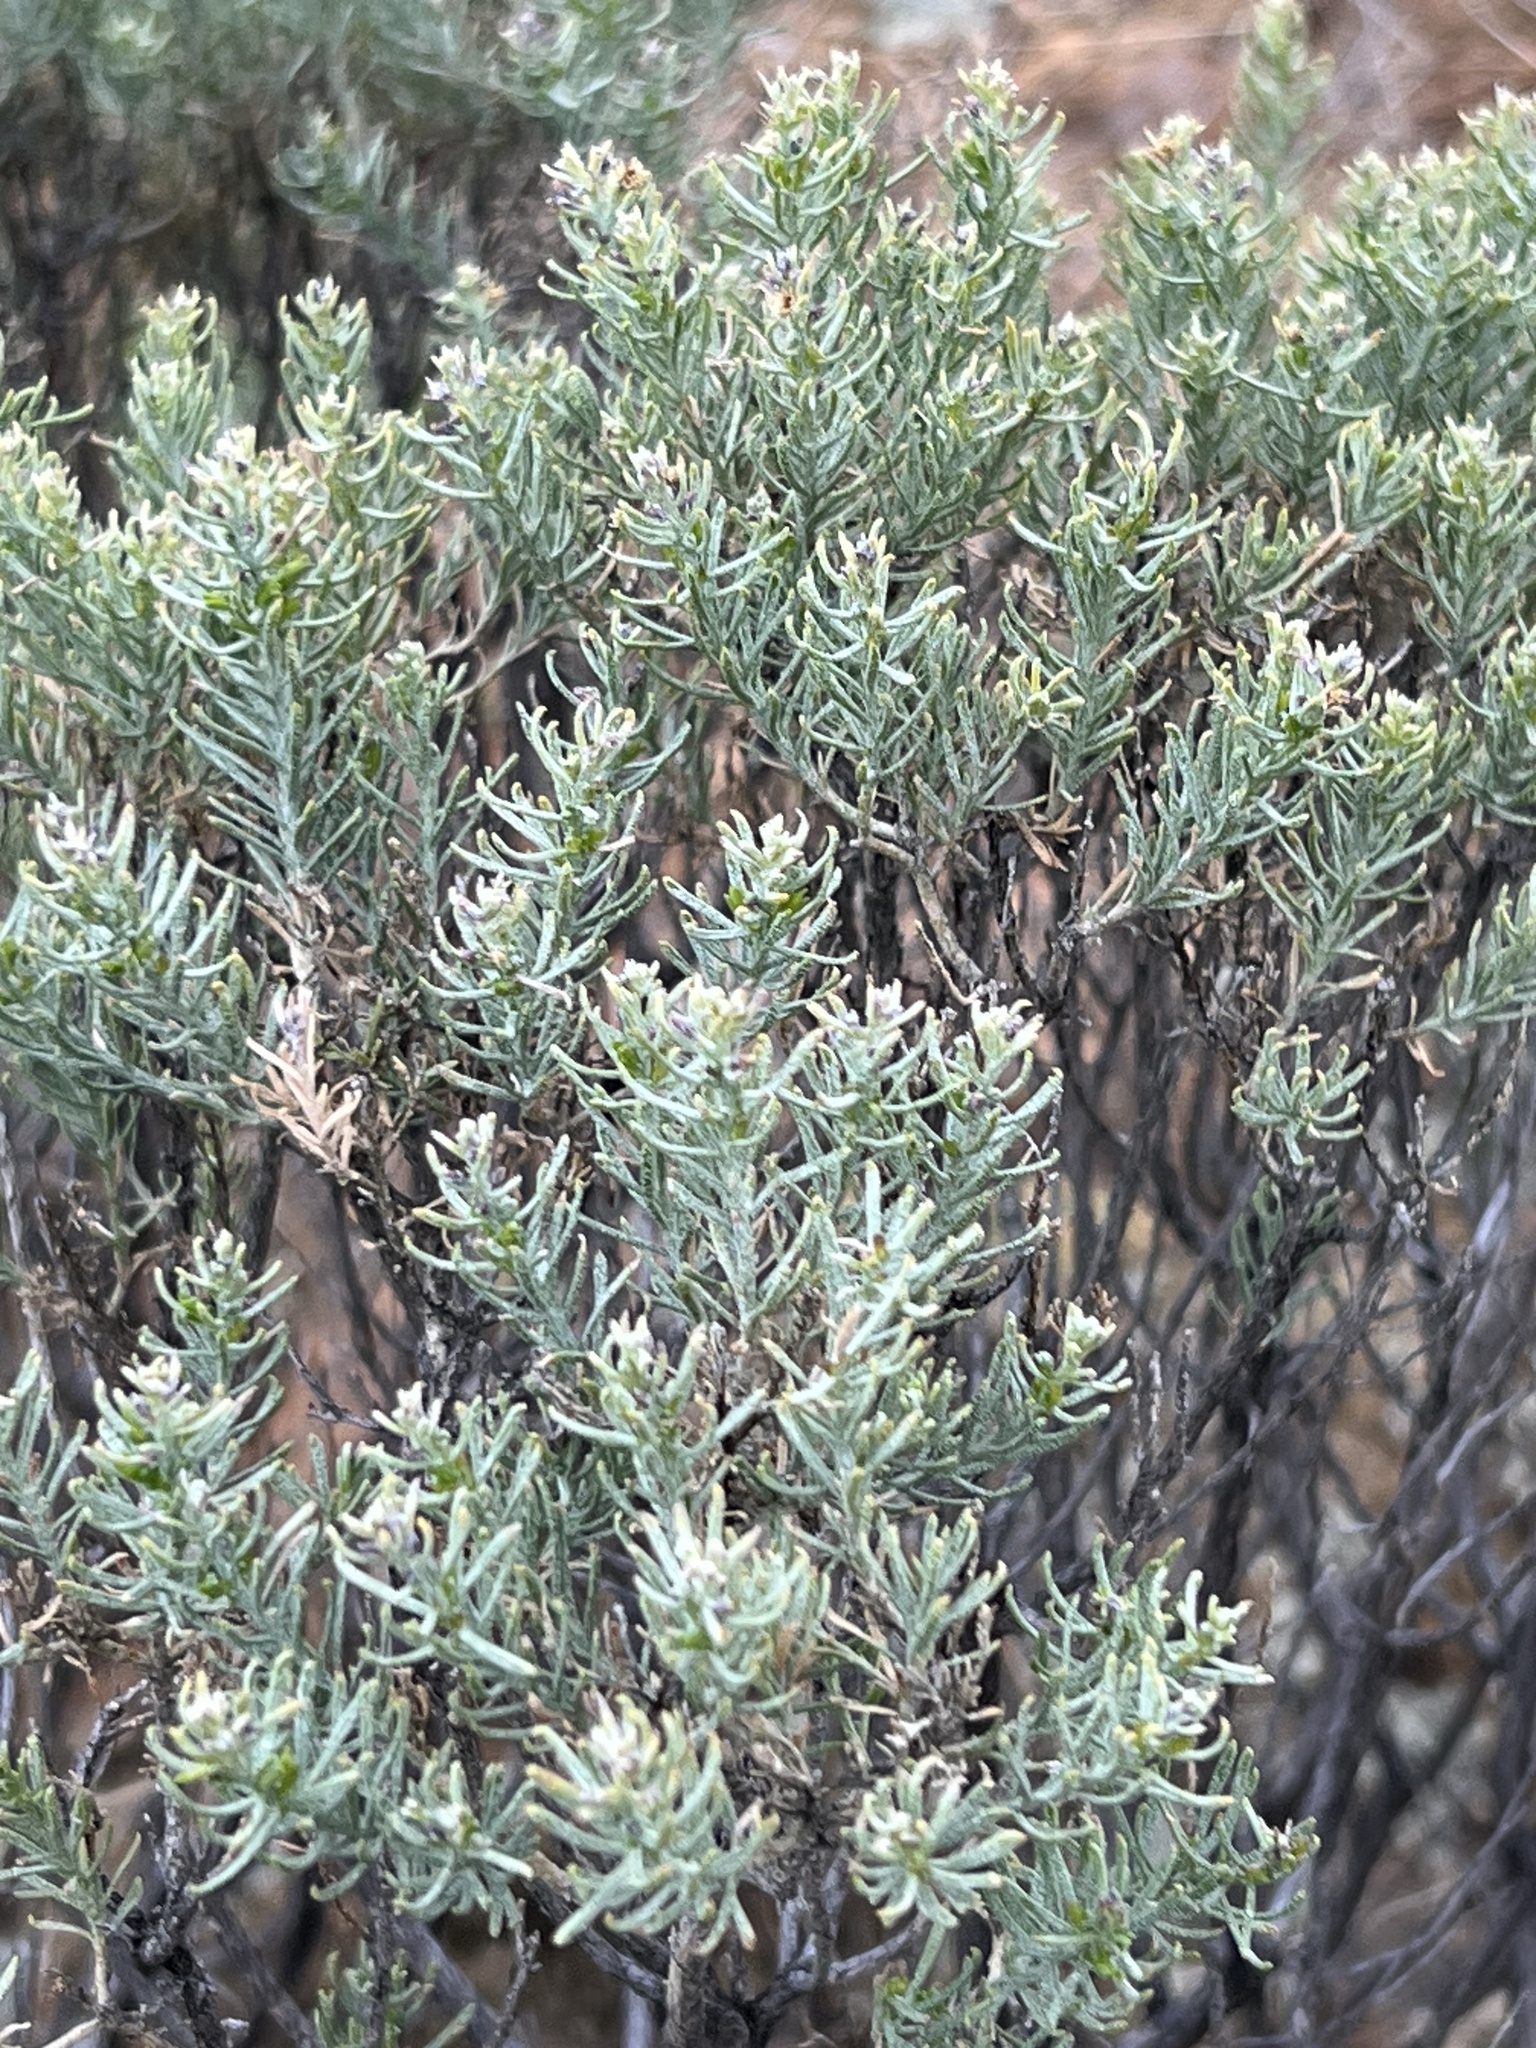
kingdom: Plantae
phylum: Tracheophyta
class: Magnoliopsida
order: Asterales
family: Asteraceae
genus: Ericameria
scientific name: Ericameria laricifolia
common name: Turpentine-bush
